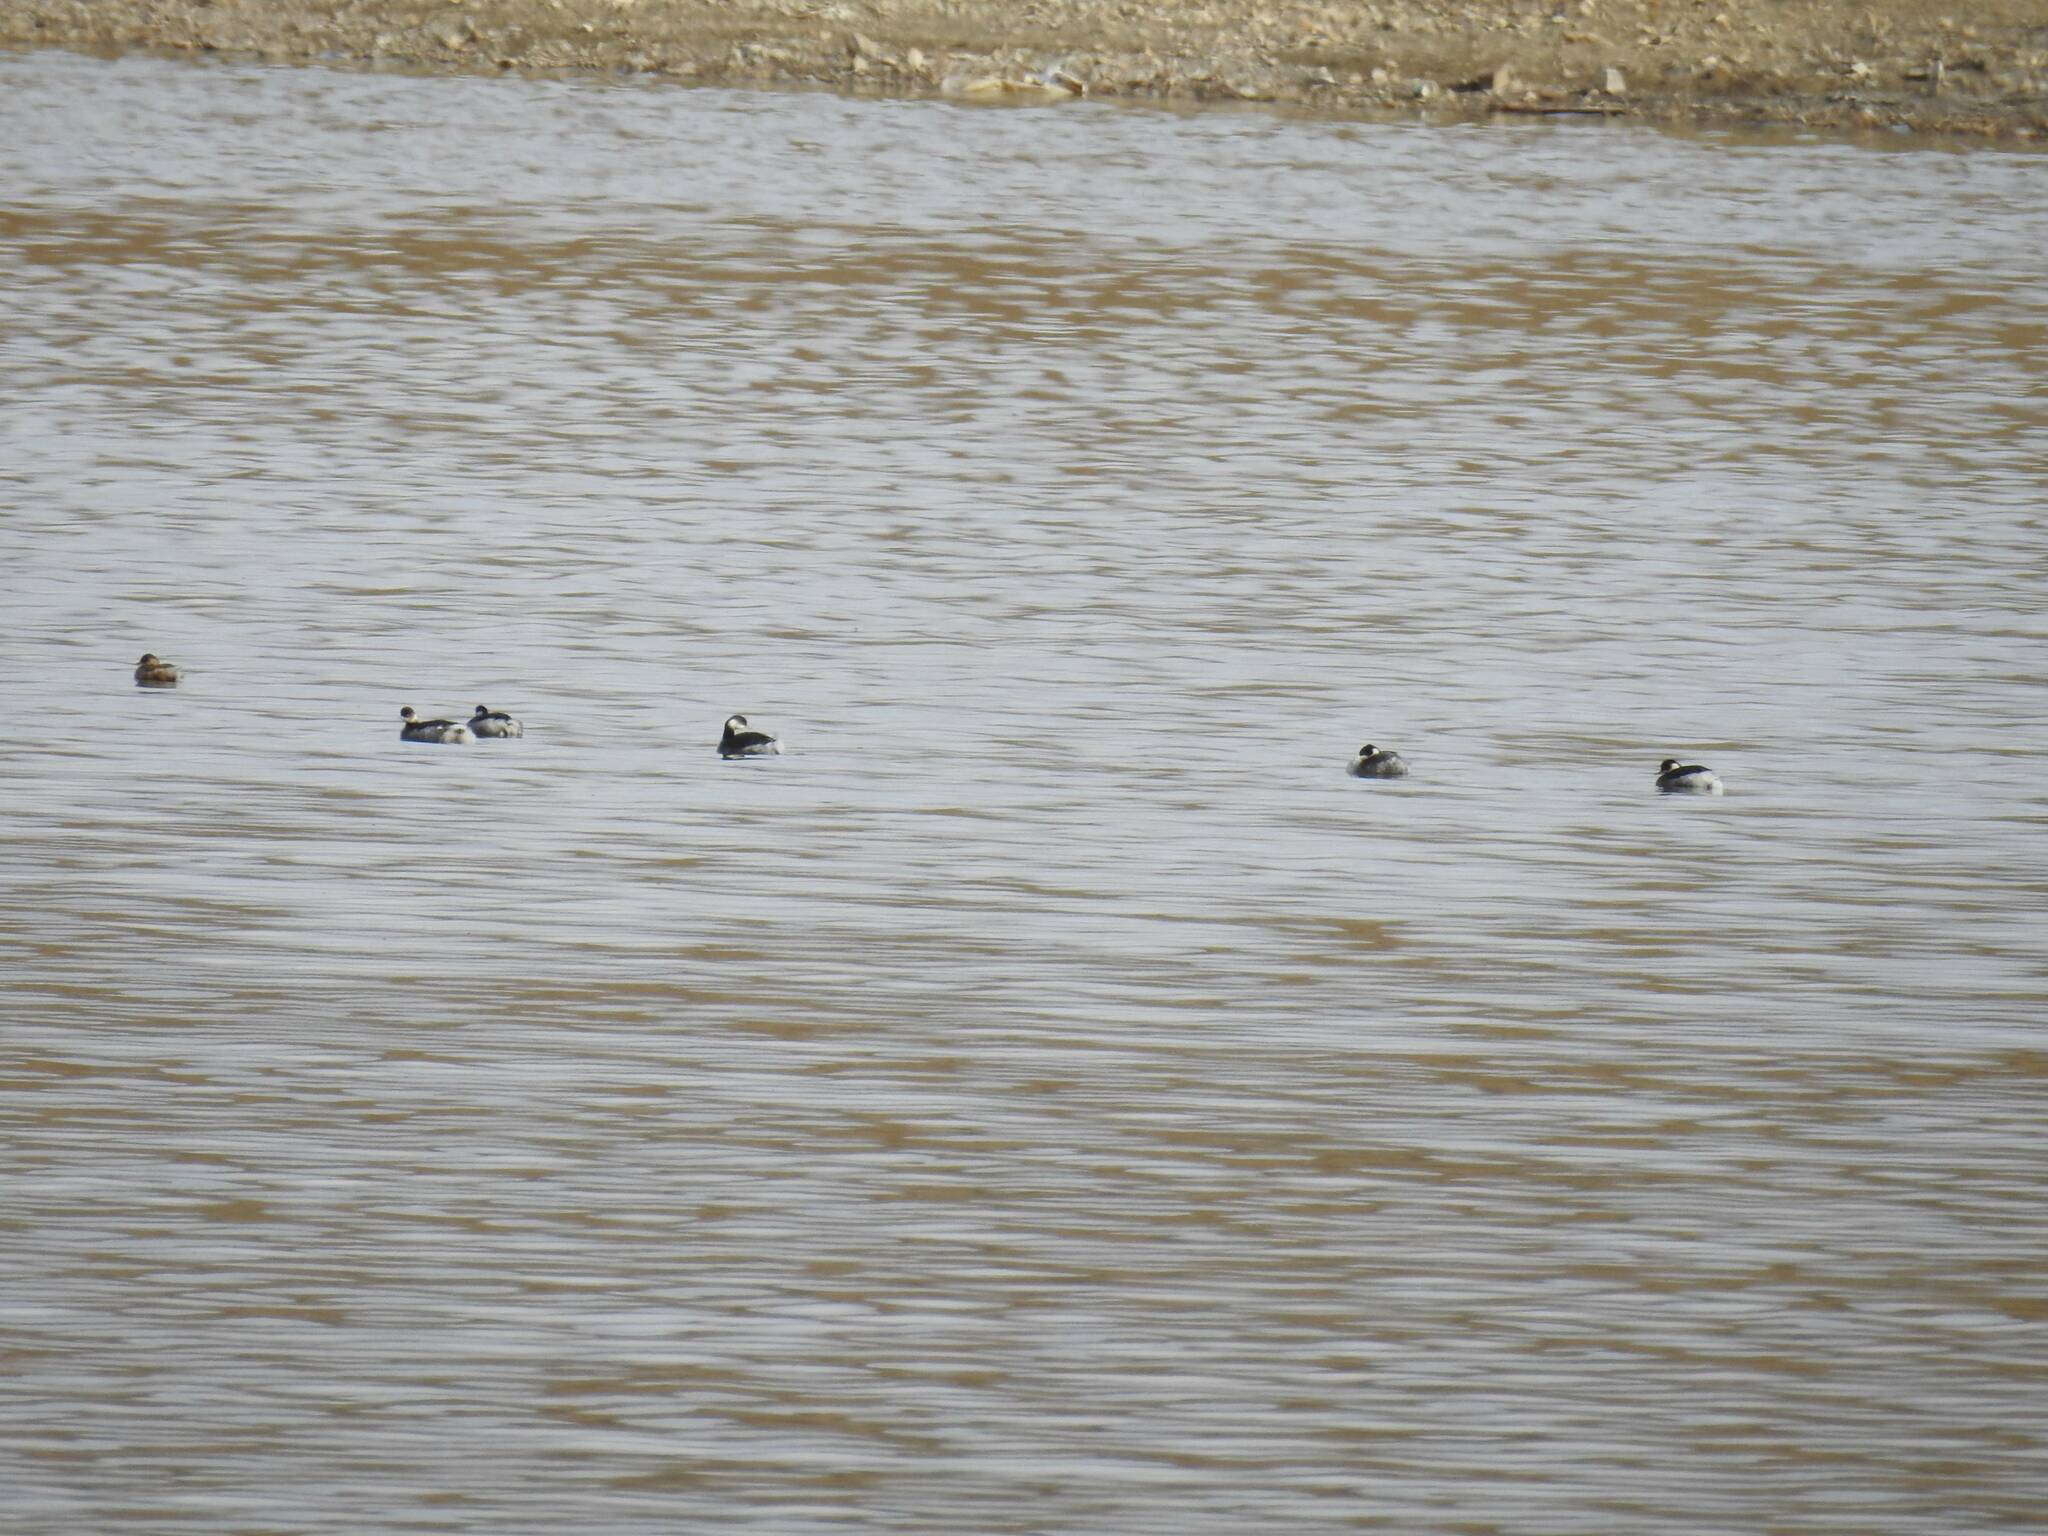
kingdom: Animalia
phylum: Chordata
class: Aves
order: Podicipediformes
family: Podicipedidae
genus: Podiceps
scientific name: Podiceps nigricollis
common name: Black-necked grebe
